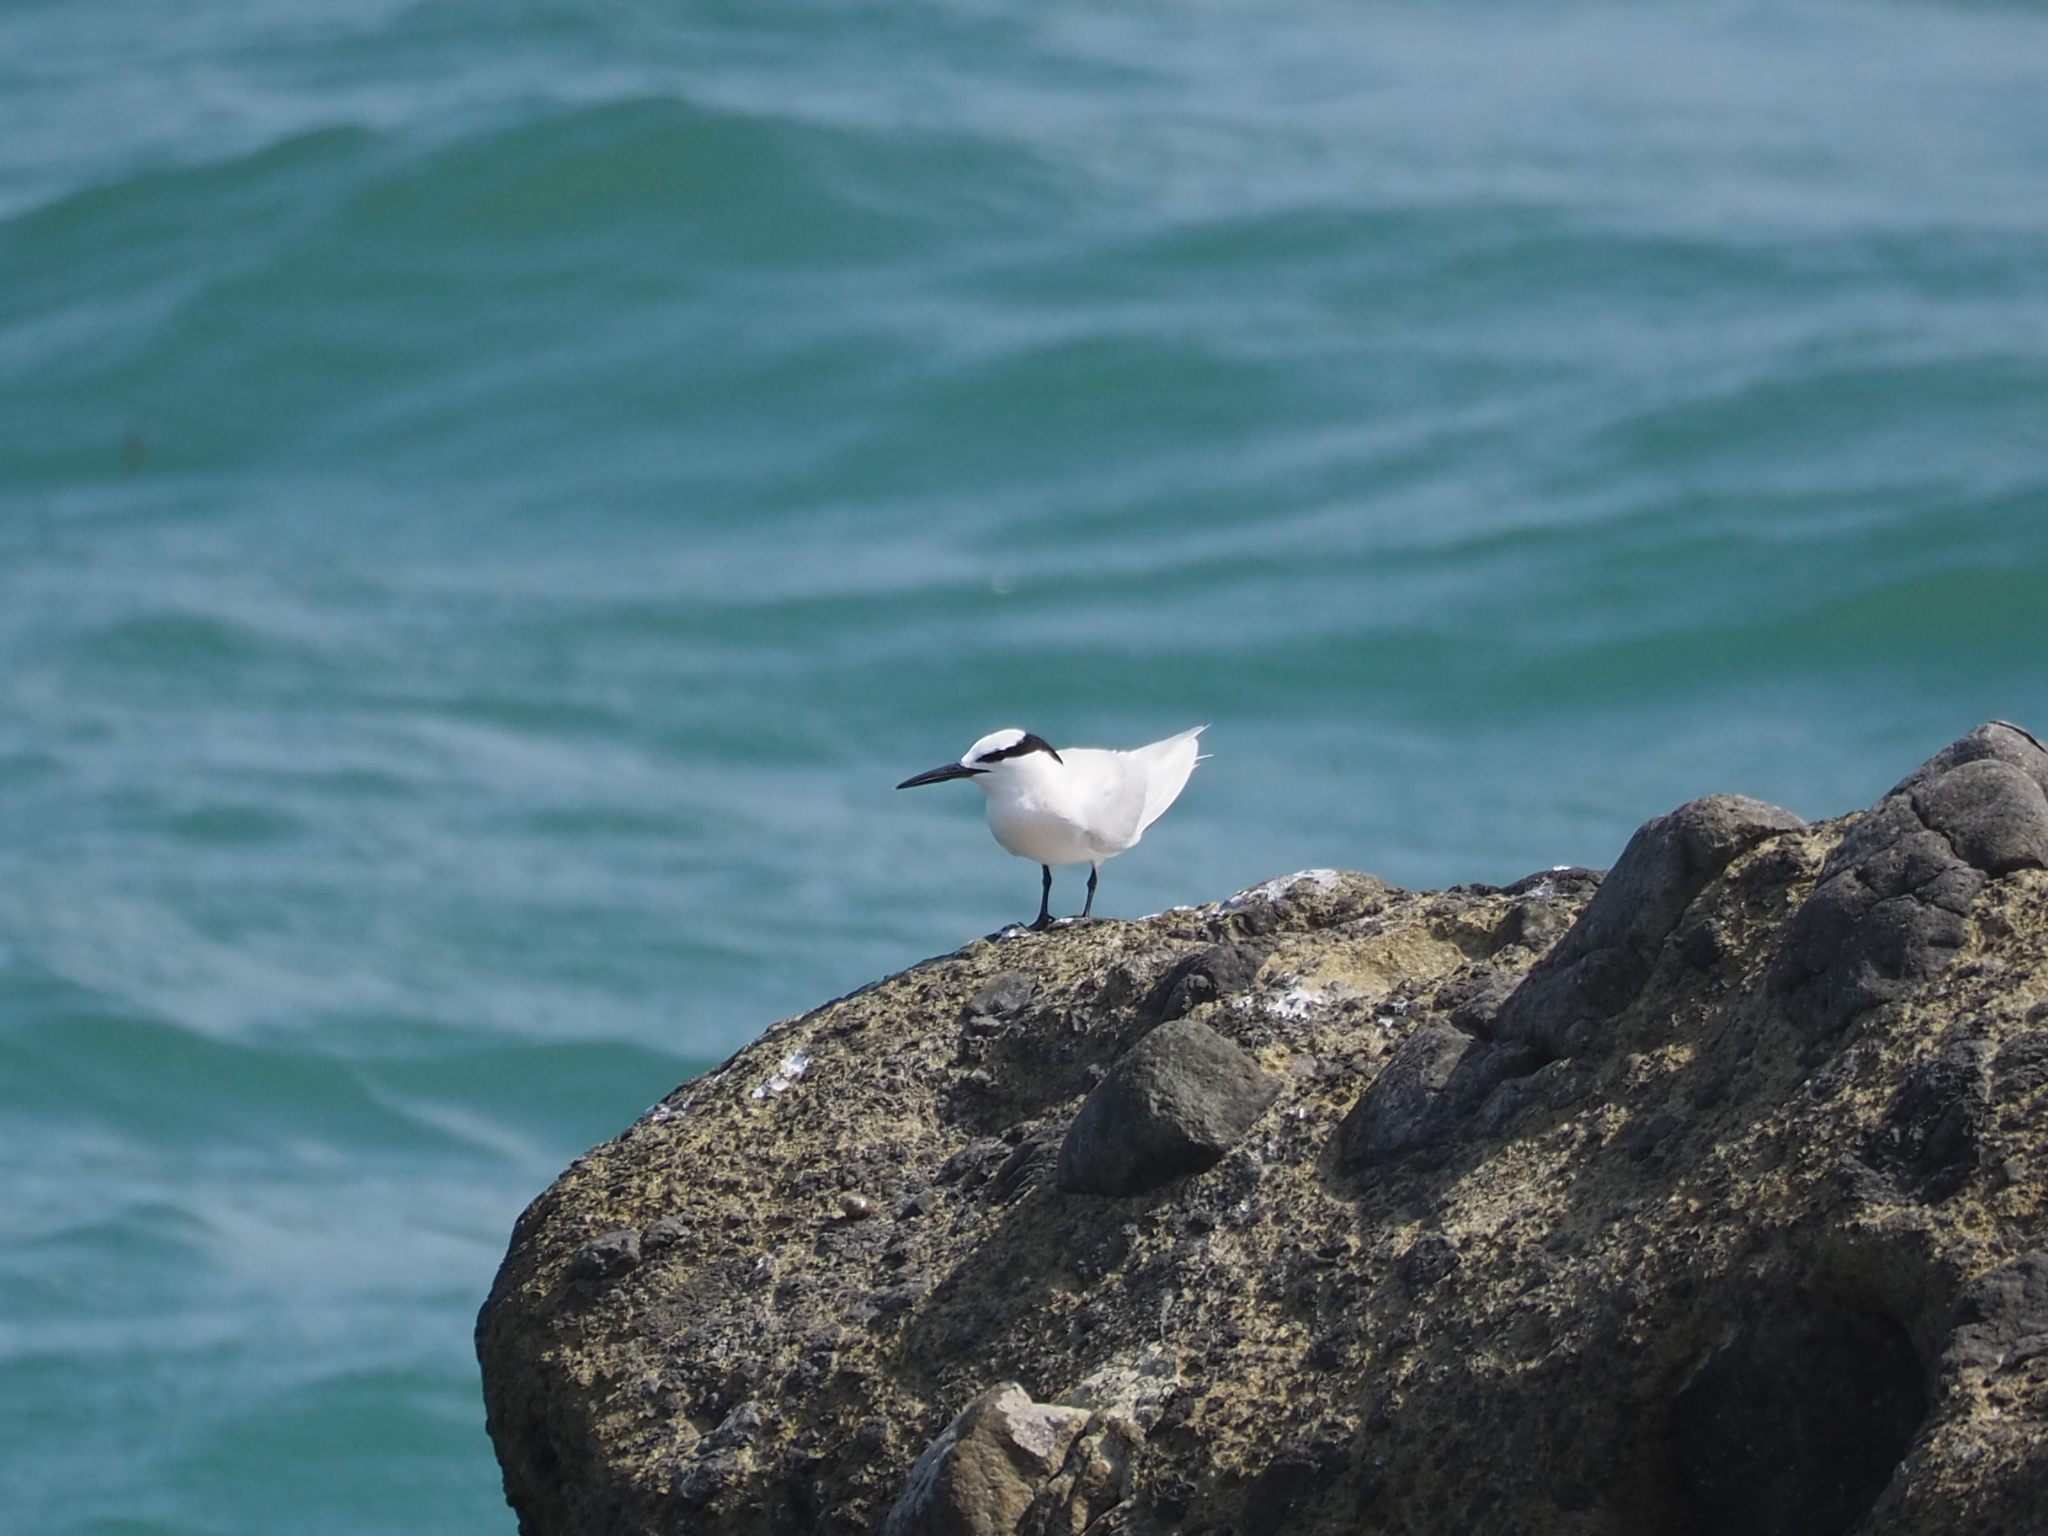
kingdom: Animalia
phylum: Chordata
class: Aves
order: Charadriiformes
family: Laridae
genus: Sterna
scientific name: Sterna sumatrana
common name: Black-naped tern
